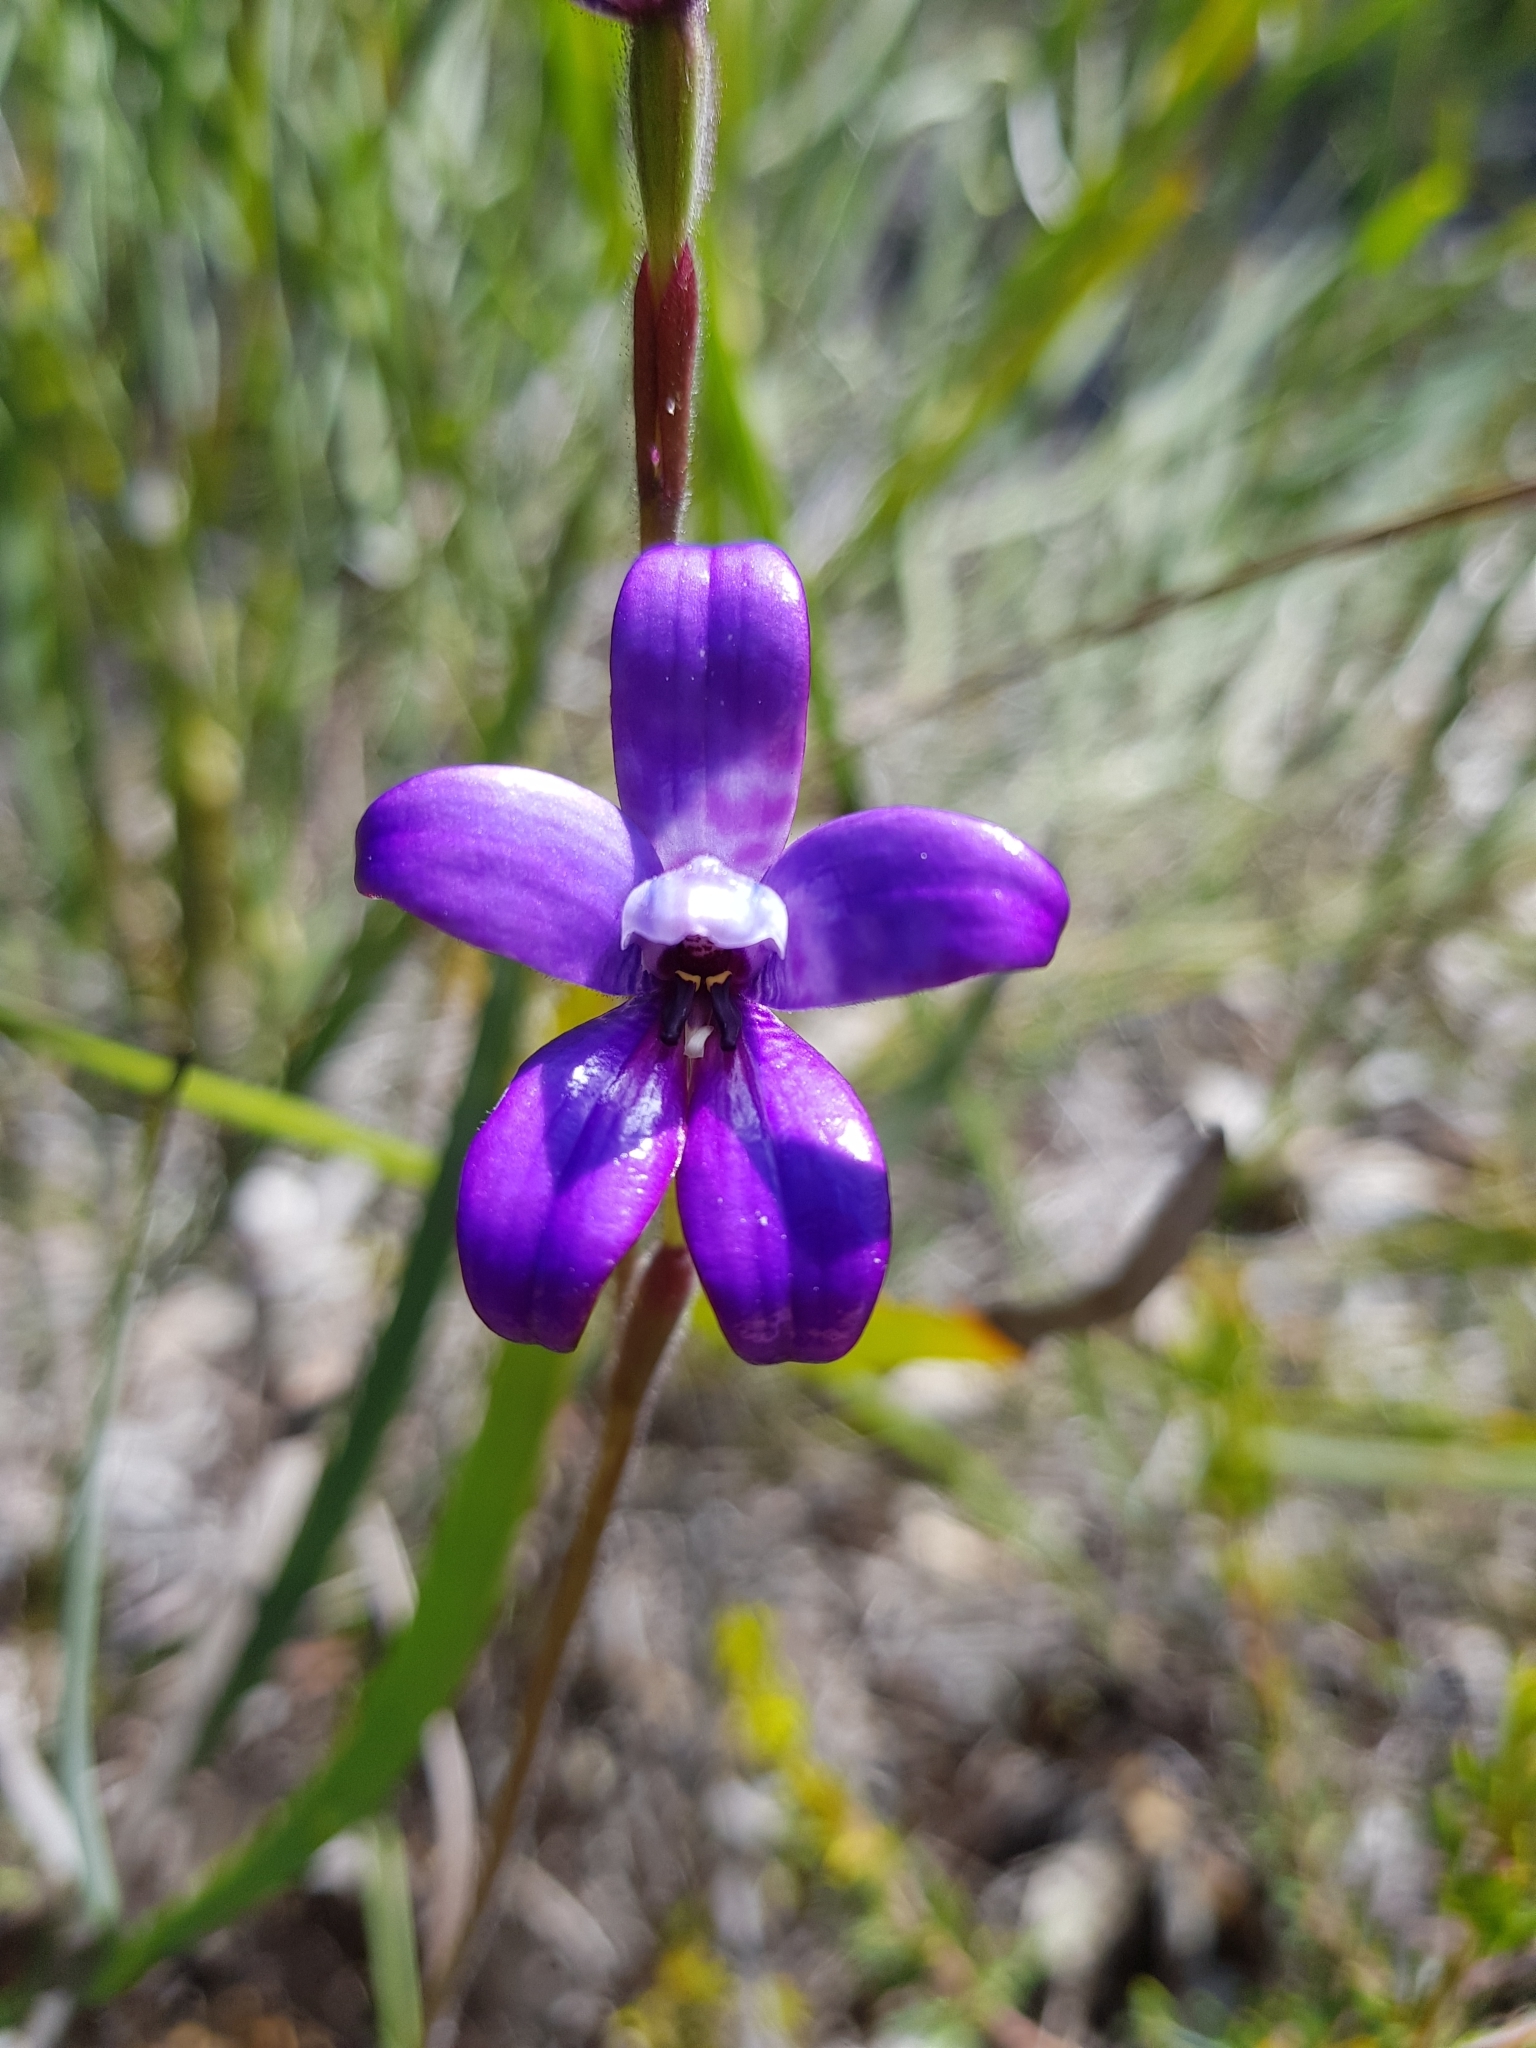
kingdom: Plantae
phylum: Tracheophyta
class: Liliopsida
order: Asparagales
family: Orchidaceae
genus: Caladenia
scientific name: Caladenia brunonis
